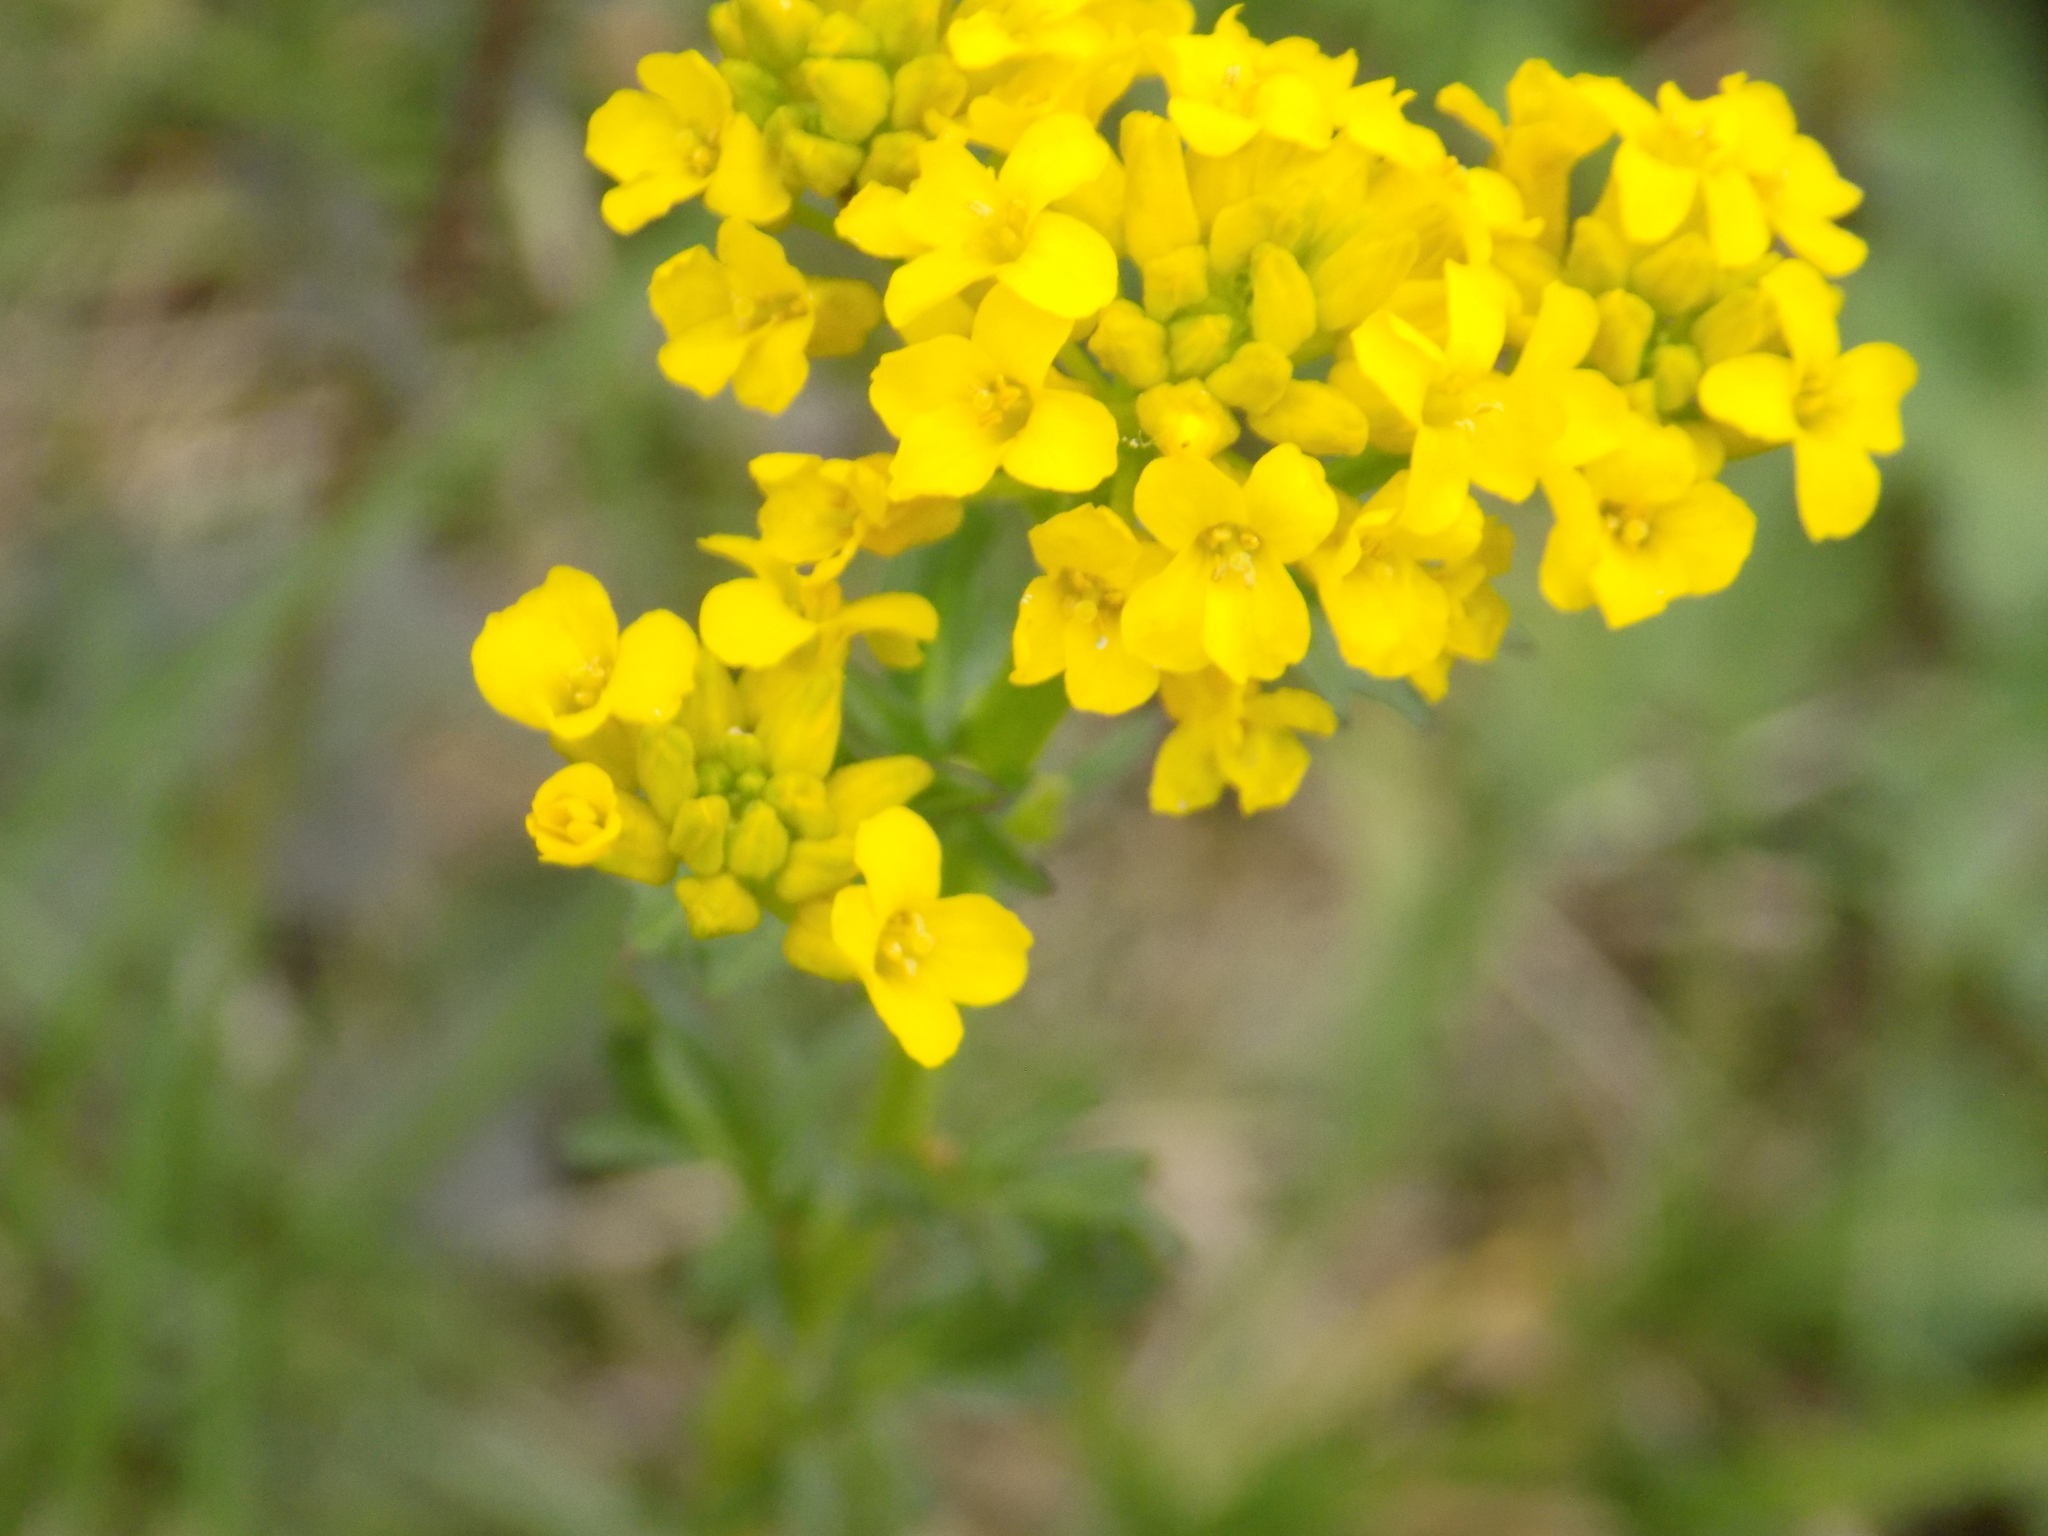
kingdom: Plantae
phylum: Tracheophyta
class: Magnoliopsida
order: Brassicales
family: Brassicaceae
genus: Barbarea
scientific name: Barbarea vulgaris
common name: Cressy-greens
